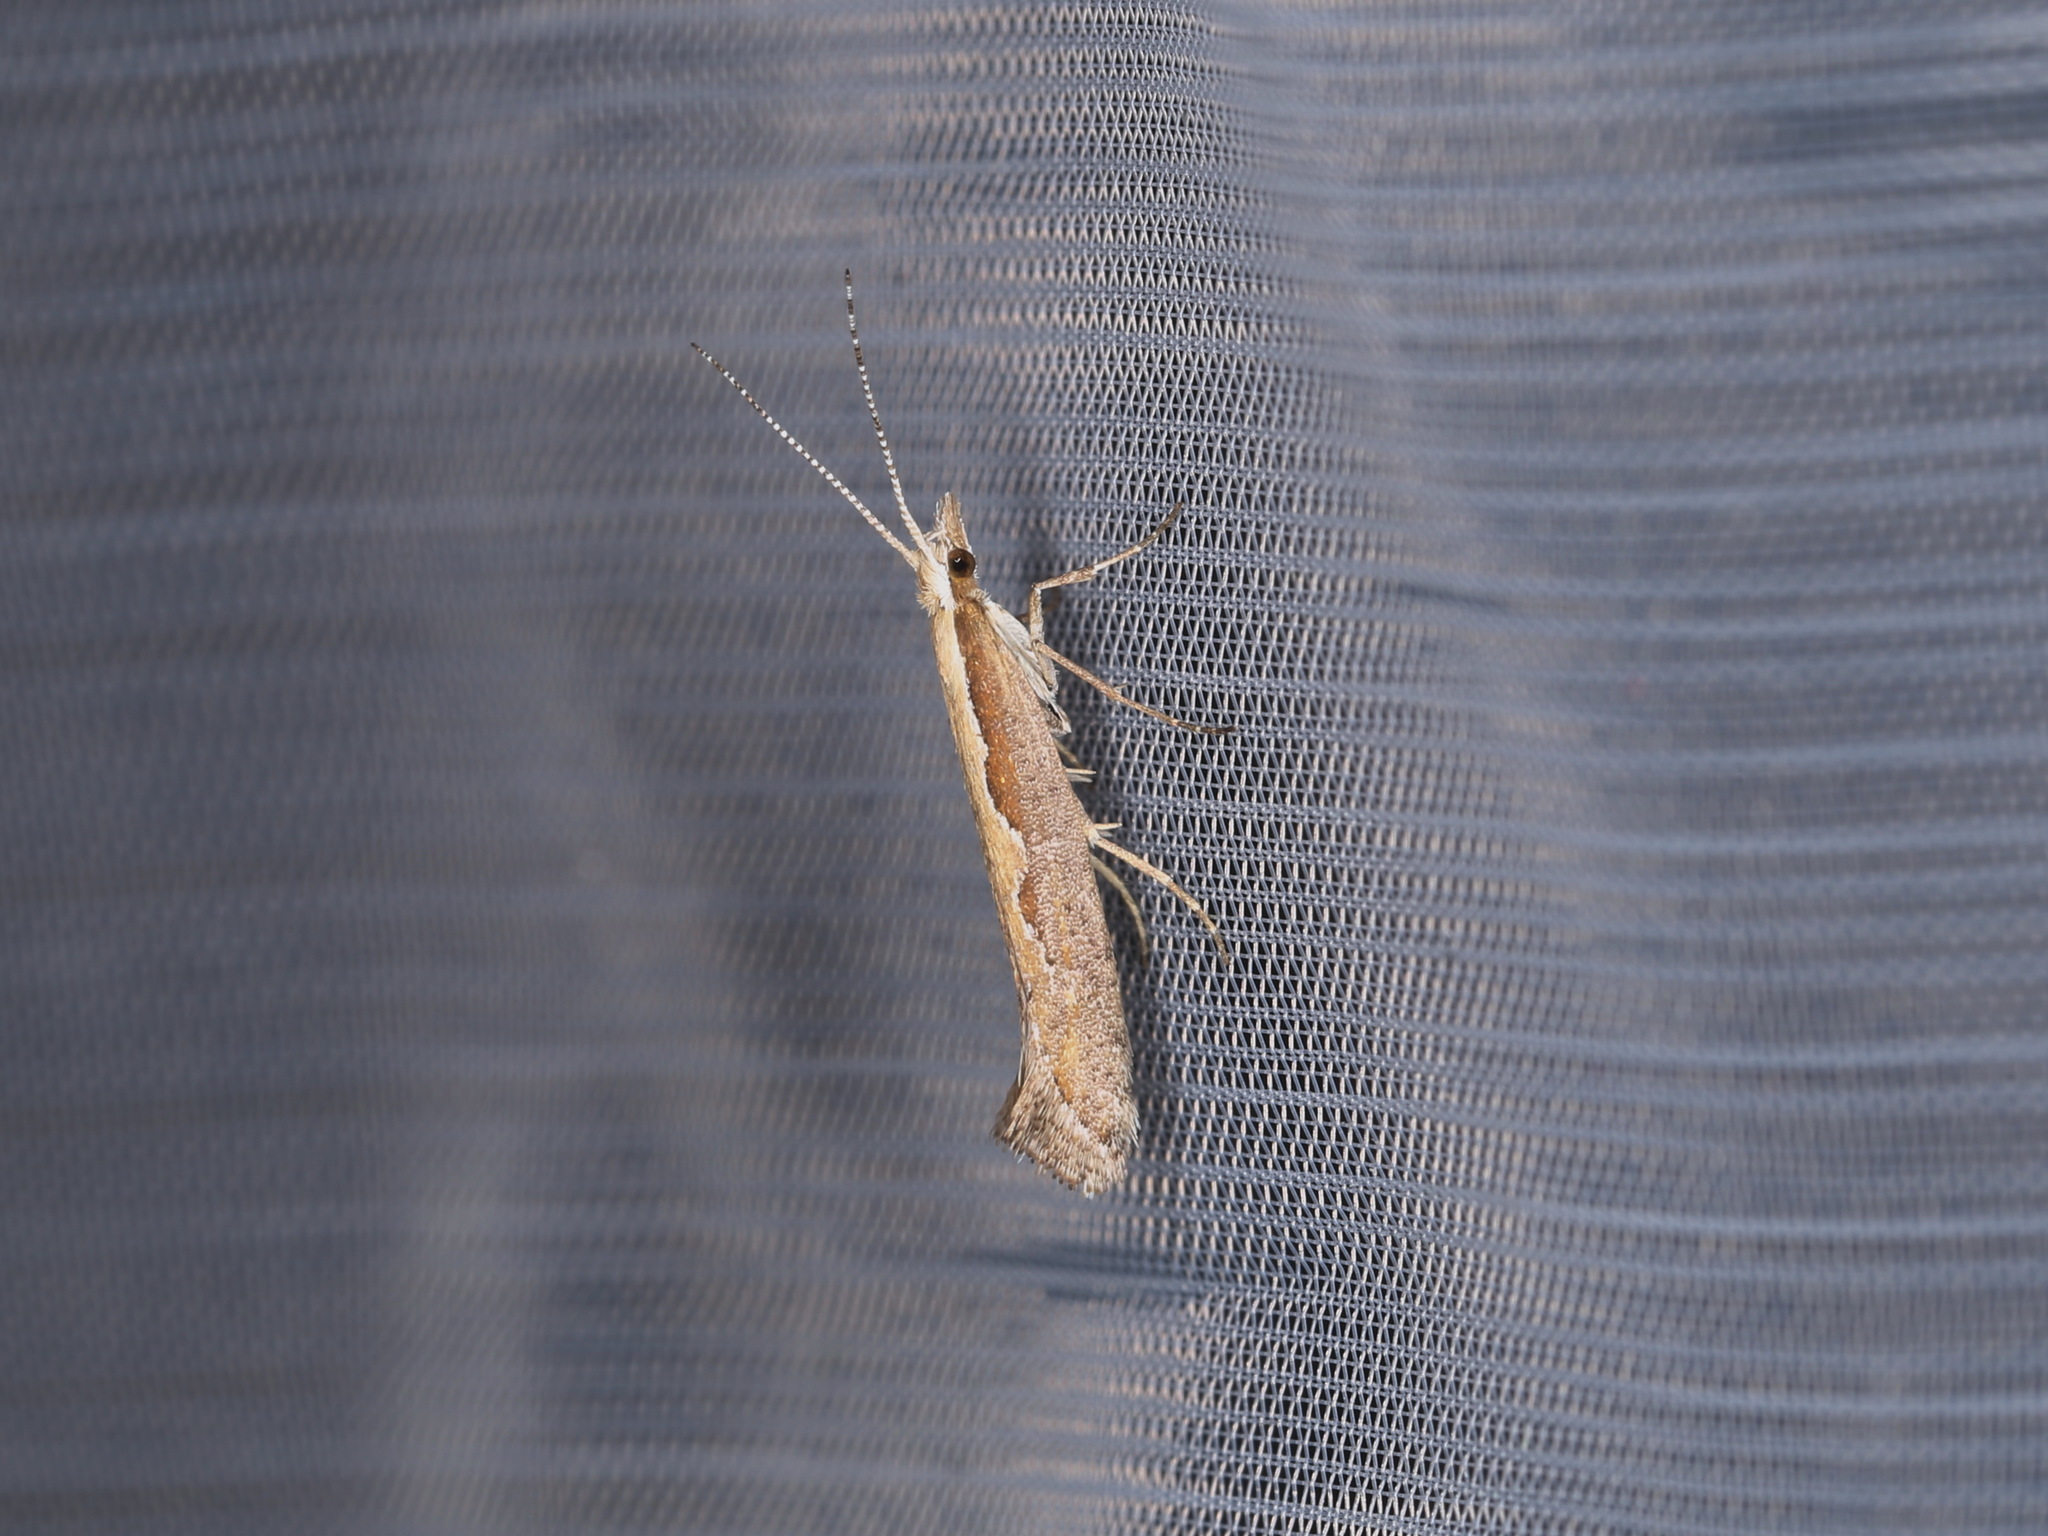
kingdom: Animalia
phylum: Arthropoda
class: Insecta
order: Lepidoptera
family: Plutellidae
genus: Plutella
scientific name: Plutella xylostella
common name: Diamond-back moth
